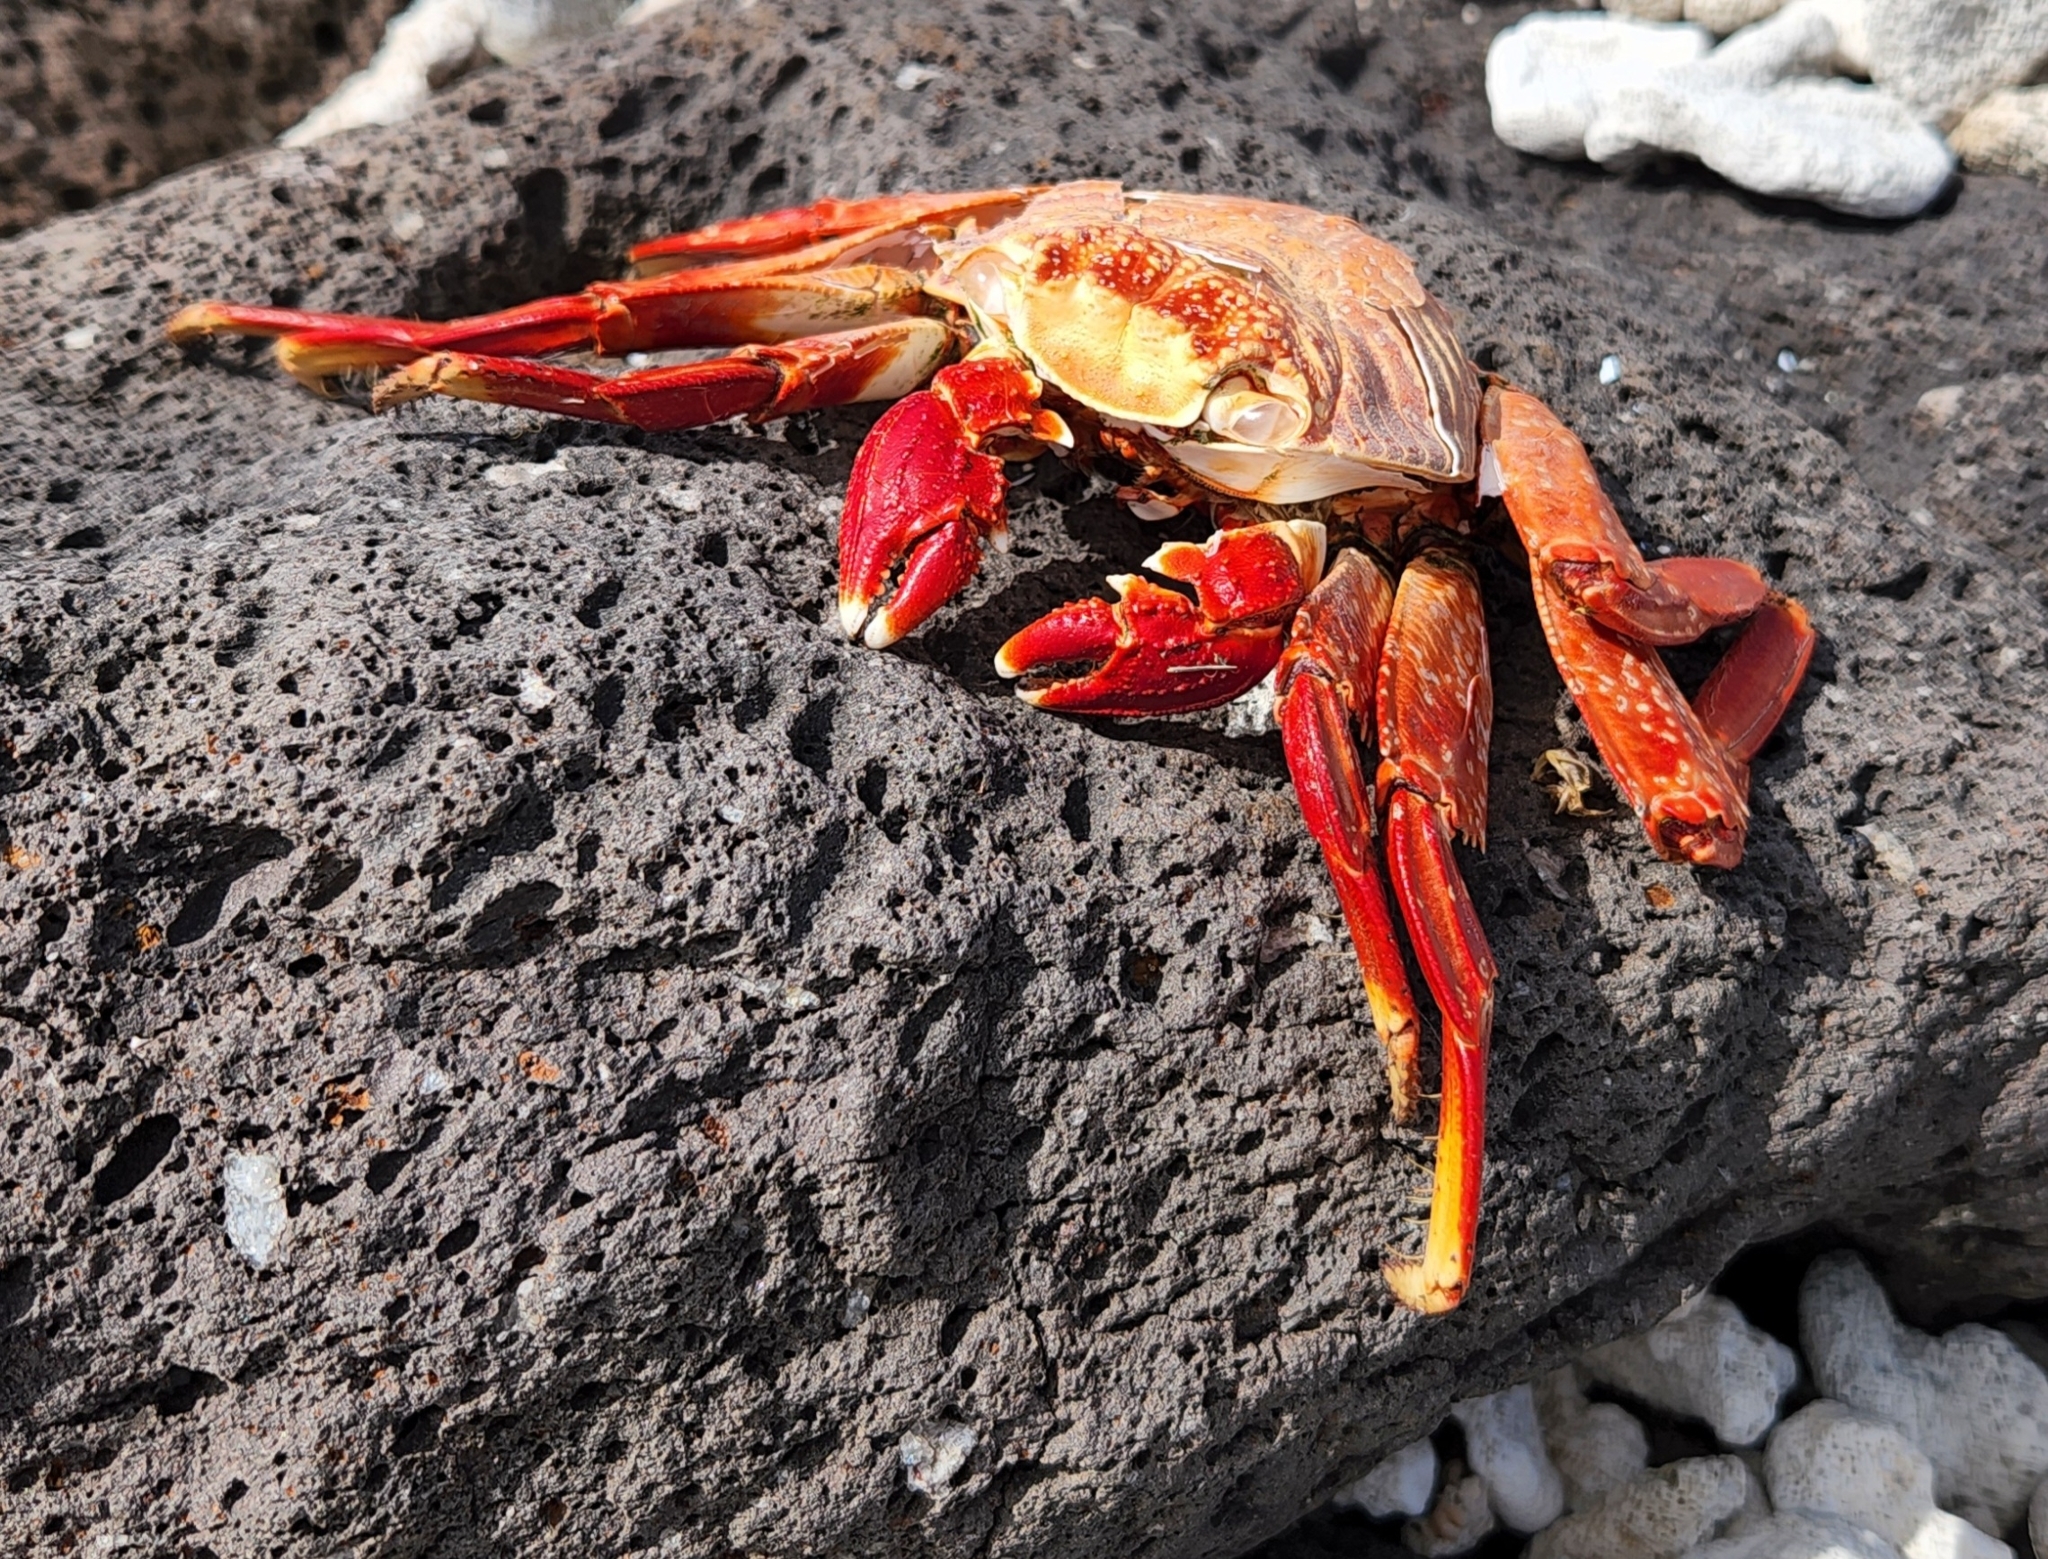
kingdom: Animalia
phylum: Arthropoda
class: Malacostraca
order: Decapoda
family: Grapsidae
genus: Grapsus
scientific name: Grapsus grapsus
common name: Sally lightfoot
